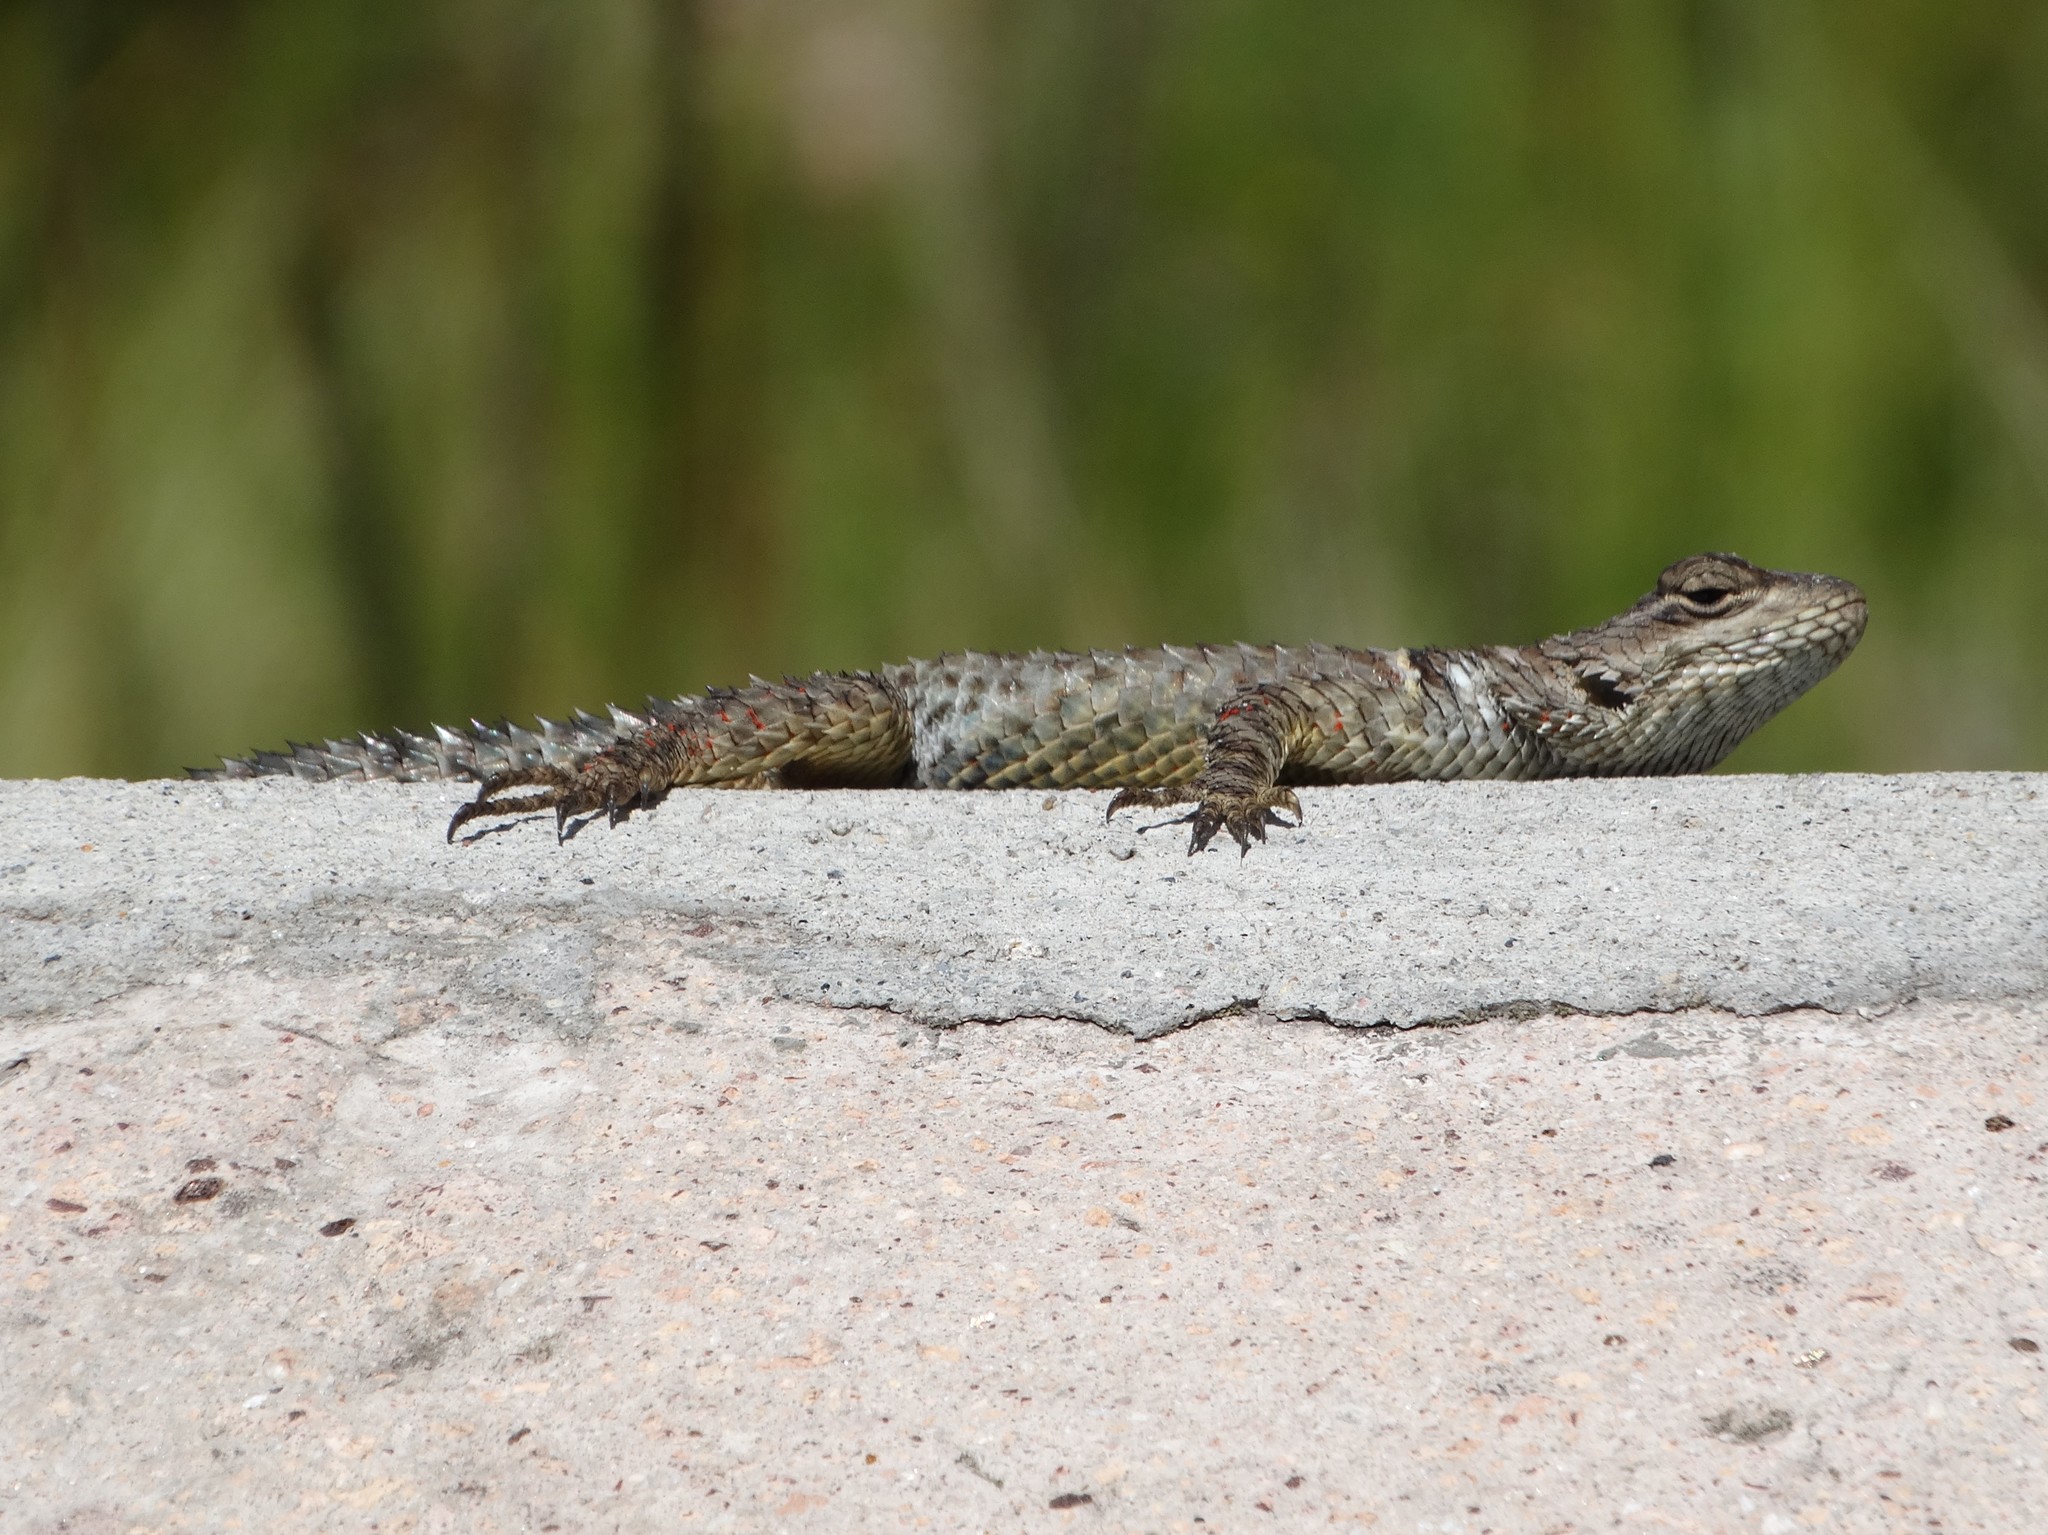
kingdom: Animalia
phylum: Chordata
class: Squamata
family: Phrynosomatidae
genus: Sceloporus
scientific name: Sceloporus torquatus
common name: Central plateau torquate lizard [melanogaster]
